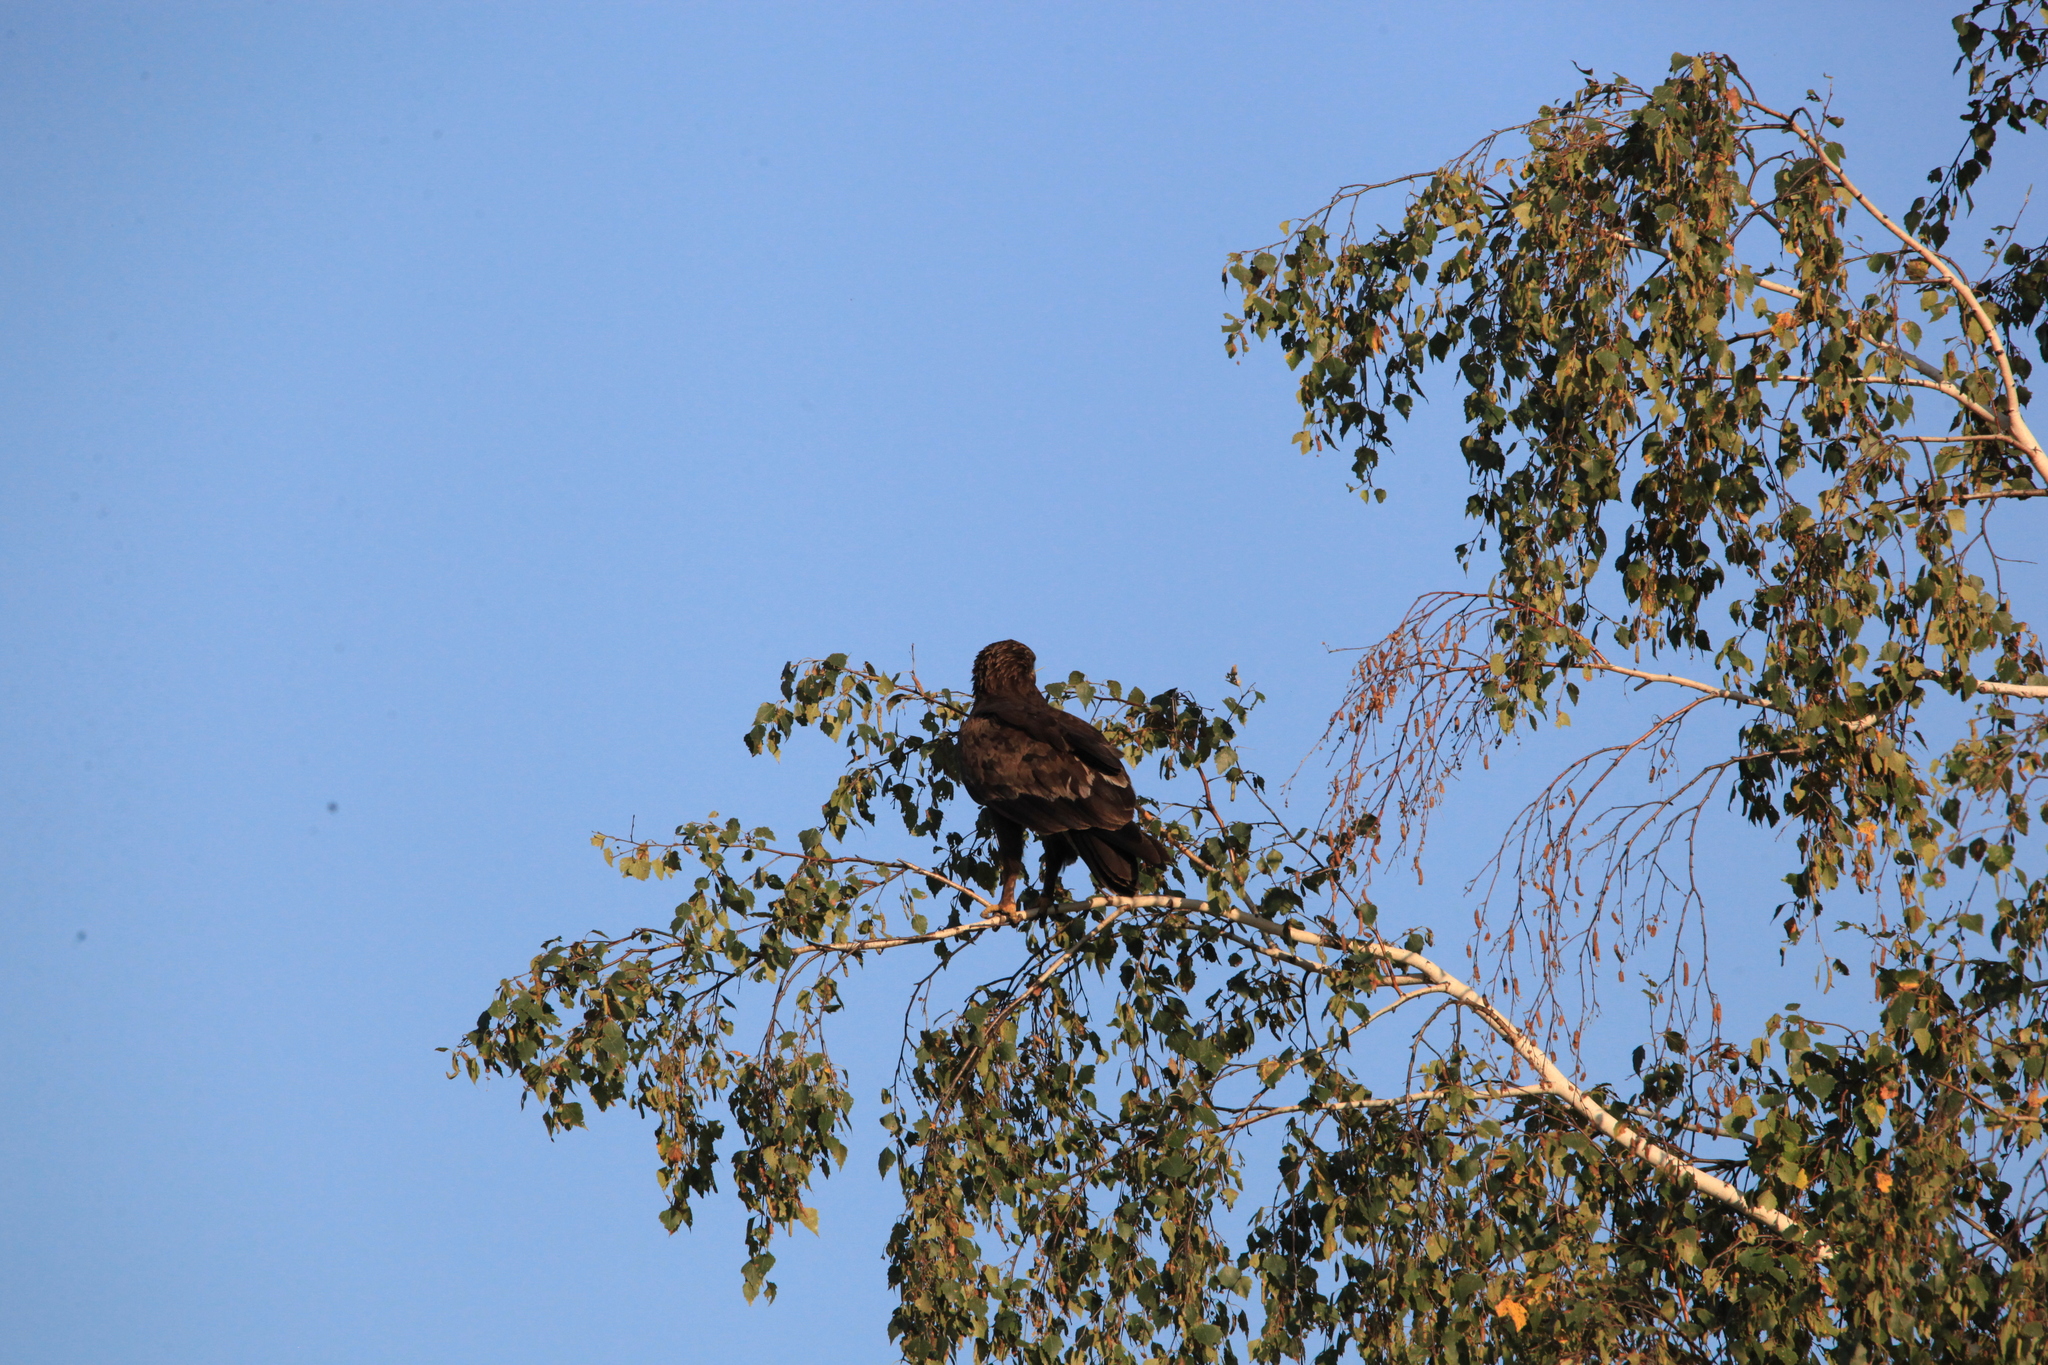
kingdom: Animalia
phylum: Chordata
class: Aves
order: Accipitriformes
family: Accipitridae
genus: Aquila
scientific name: Aquila clanga
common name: Greater spotted eagle
